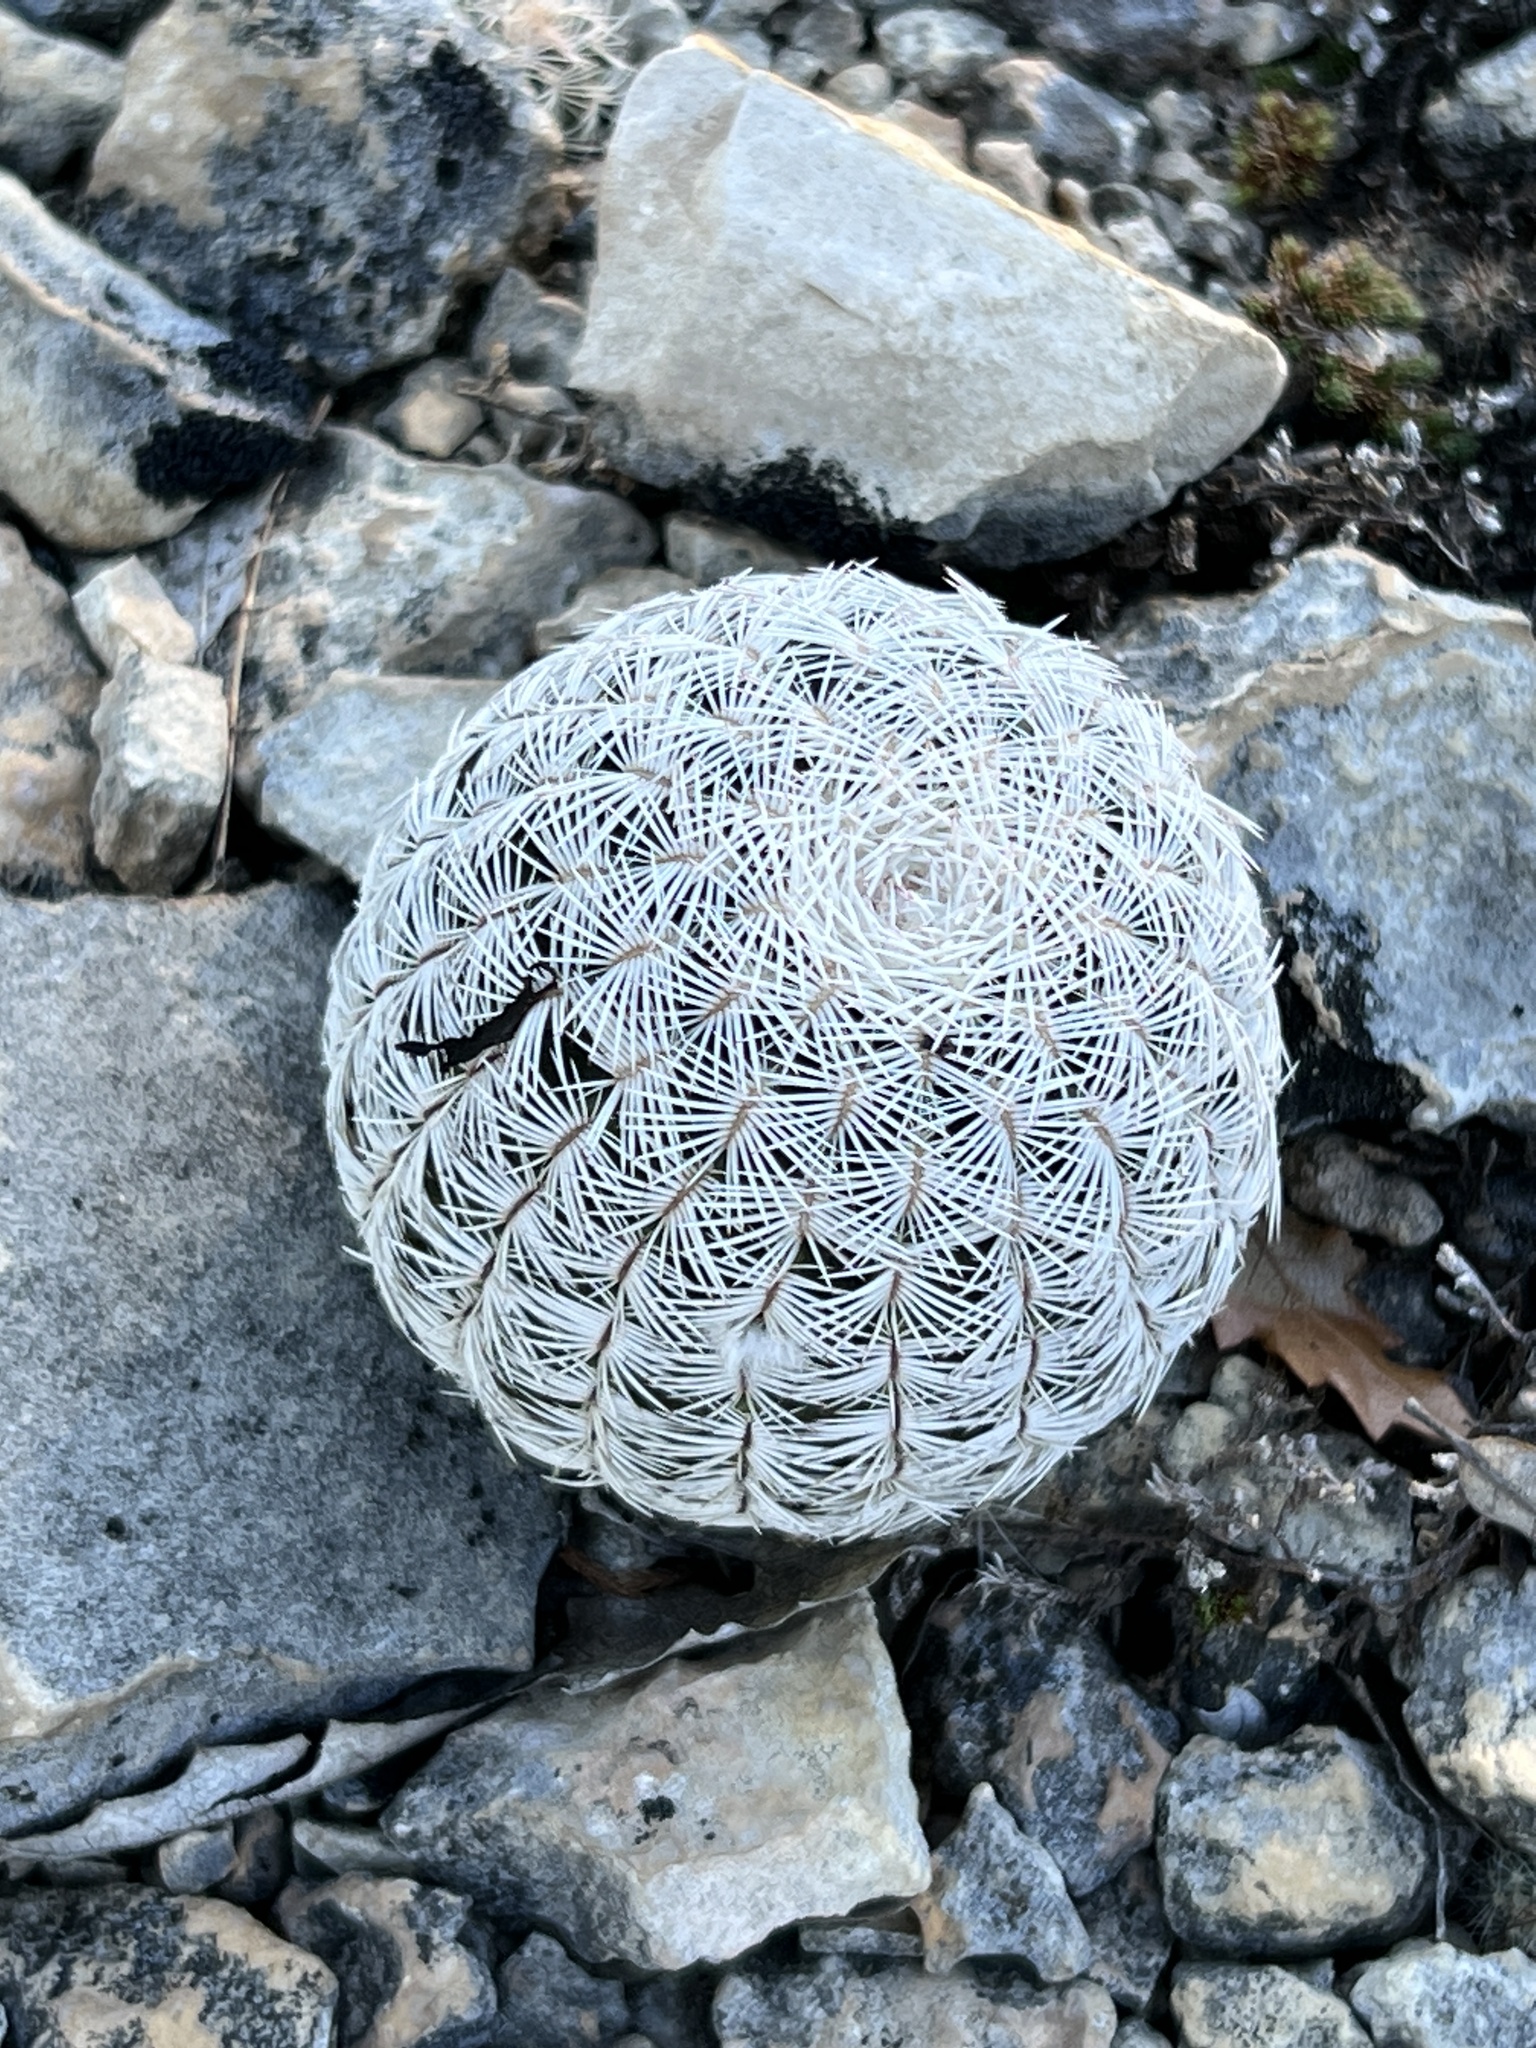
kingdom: Plantae
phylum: Tracheophyta
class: Magnoliopsida
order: Caryophyllales
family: Cactaceae
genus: Echinocereus
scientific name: Echinocereus reichenbachii
